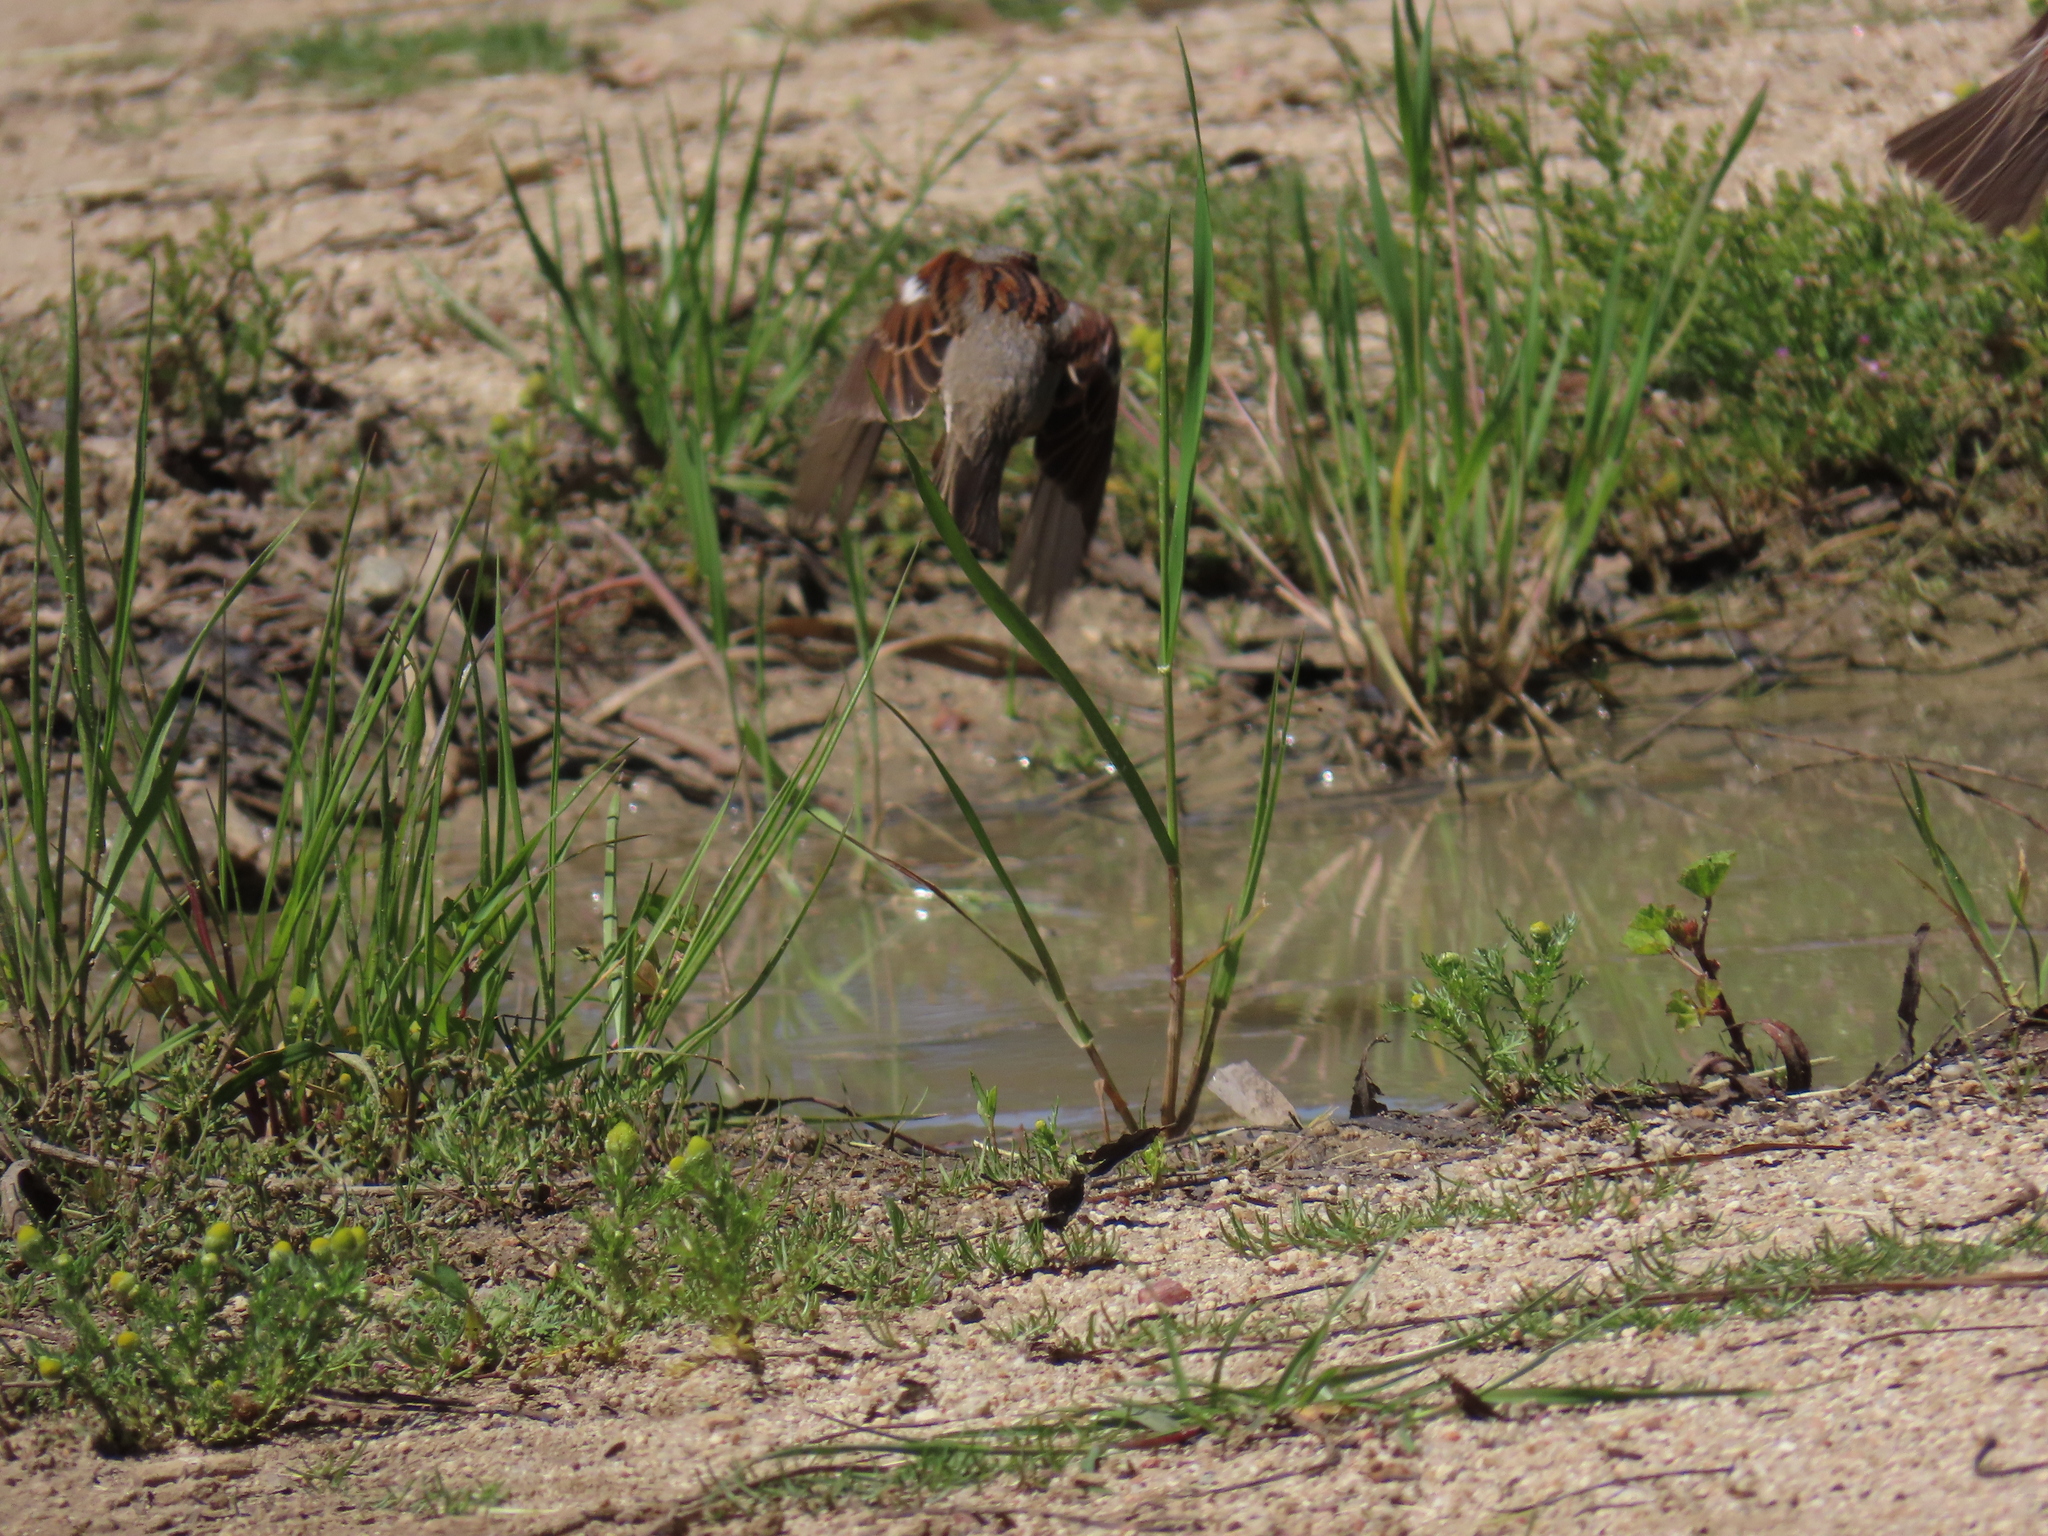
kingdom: Animalia
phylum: Chordata
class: Aves
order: Passeriformes
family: Passeridae
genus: Passer
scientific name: Passer domesticus
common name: House sparrow
